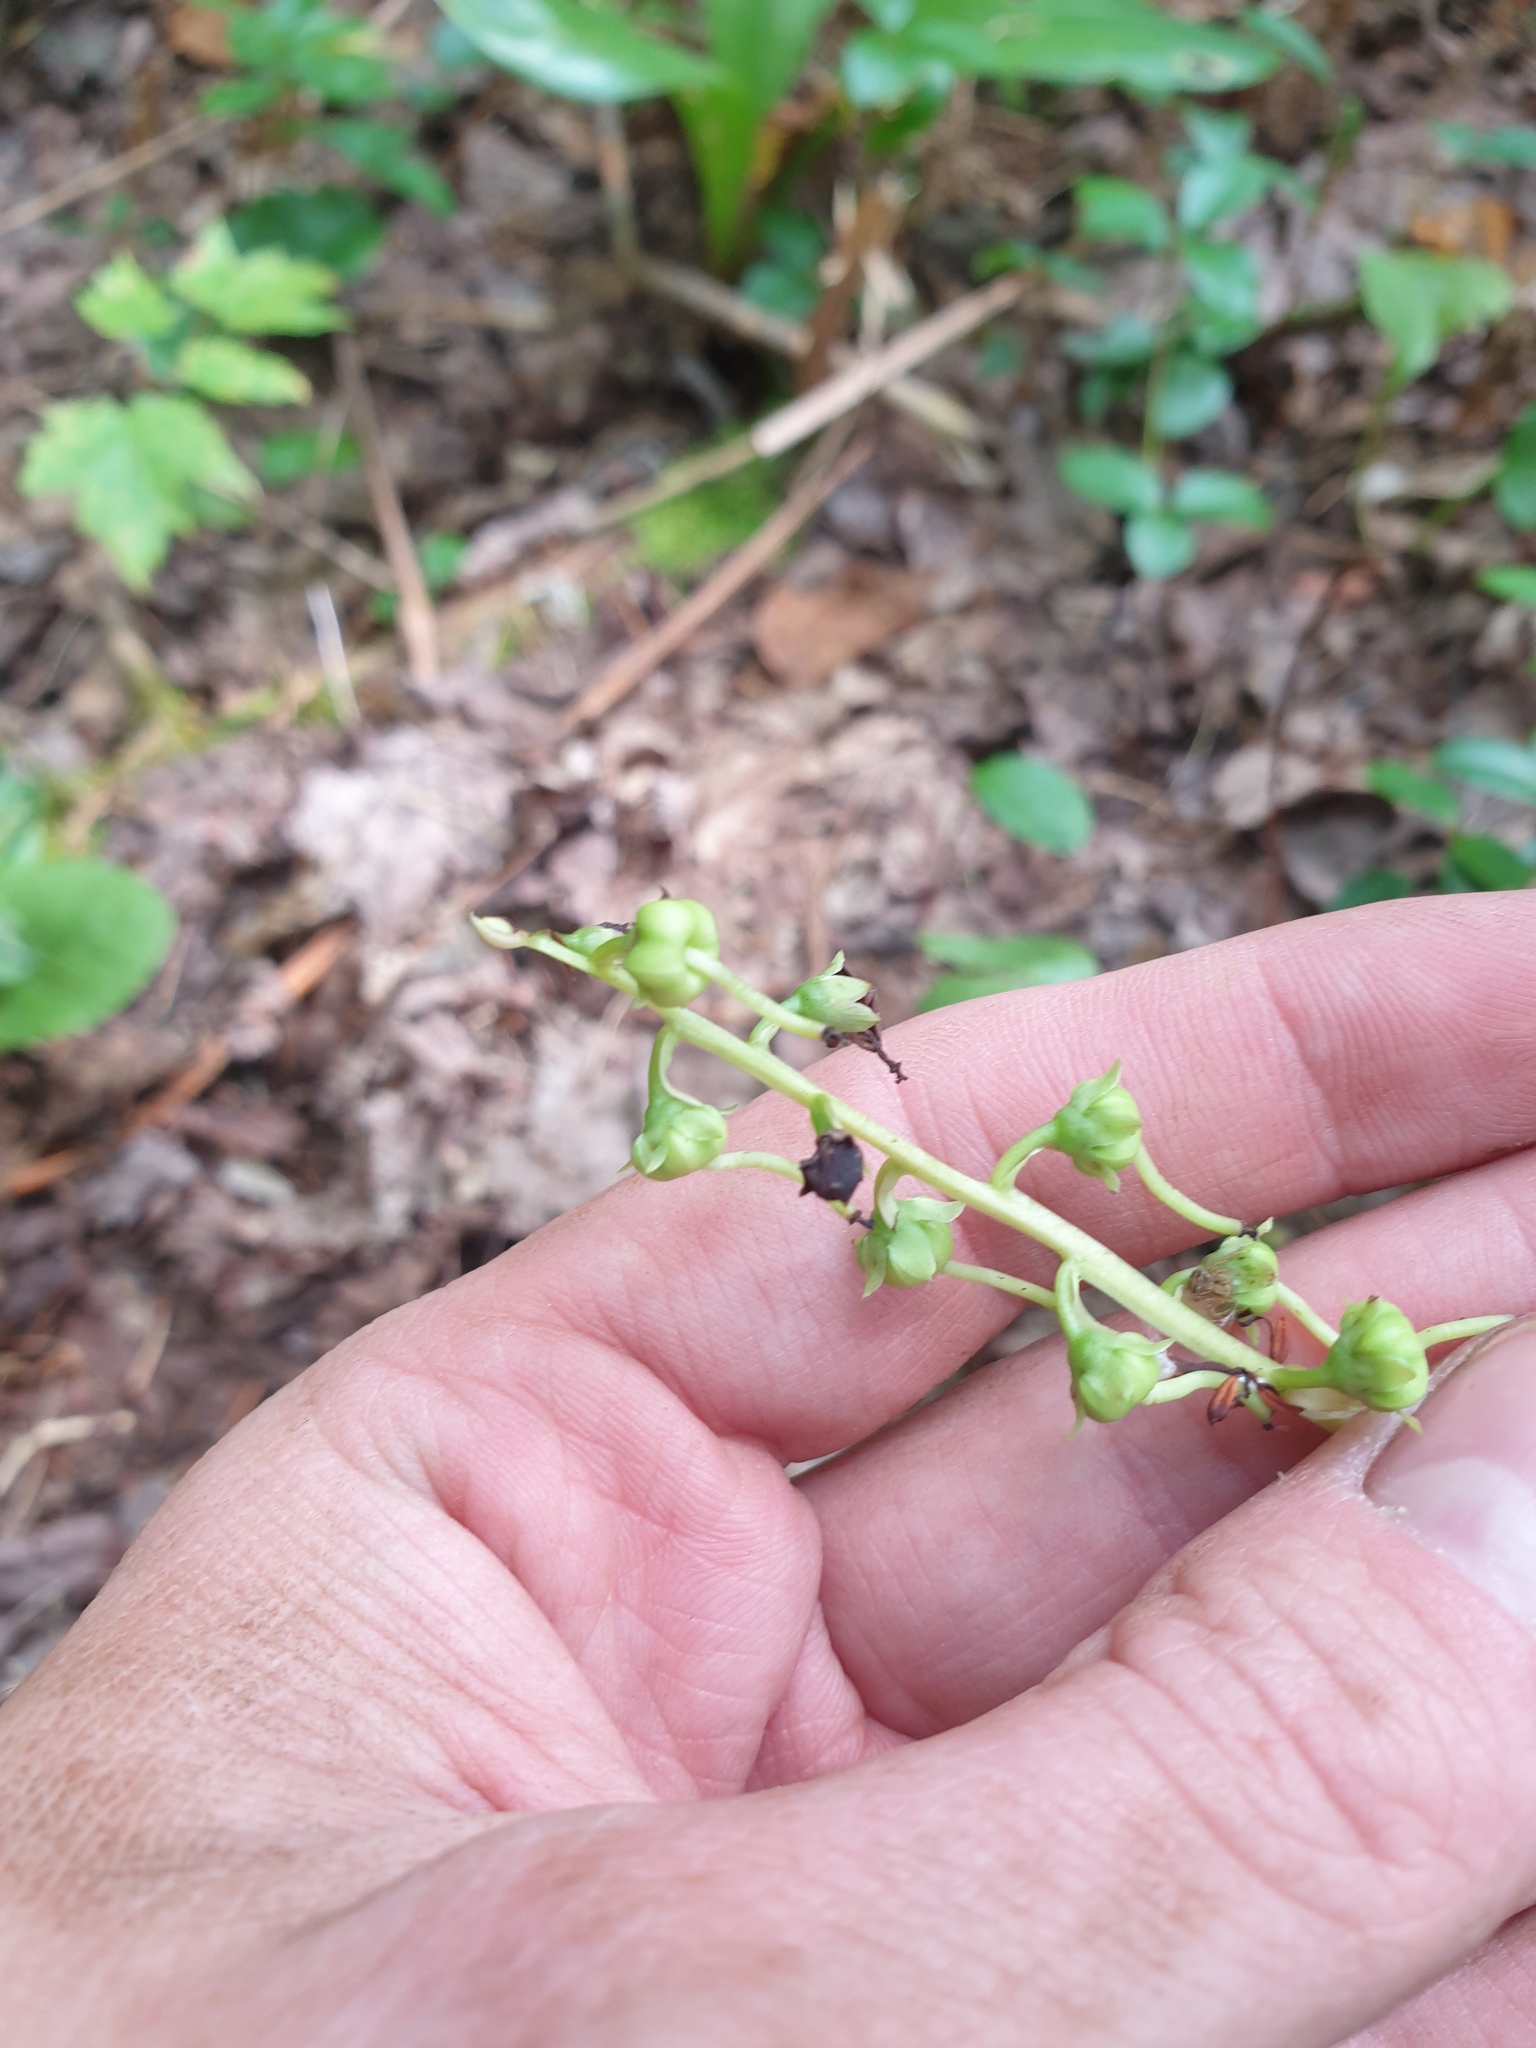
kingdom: Plantae
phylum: Tracheophyta
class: Magnoliopsida
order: Ericales
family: Ericaceae
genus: Pyrola
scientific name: Pyrola americana
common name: American wintergreen
